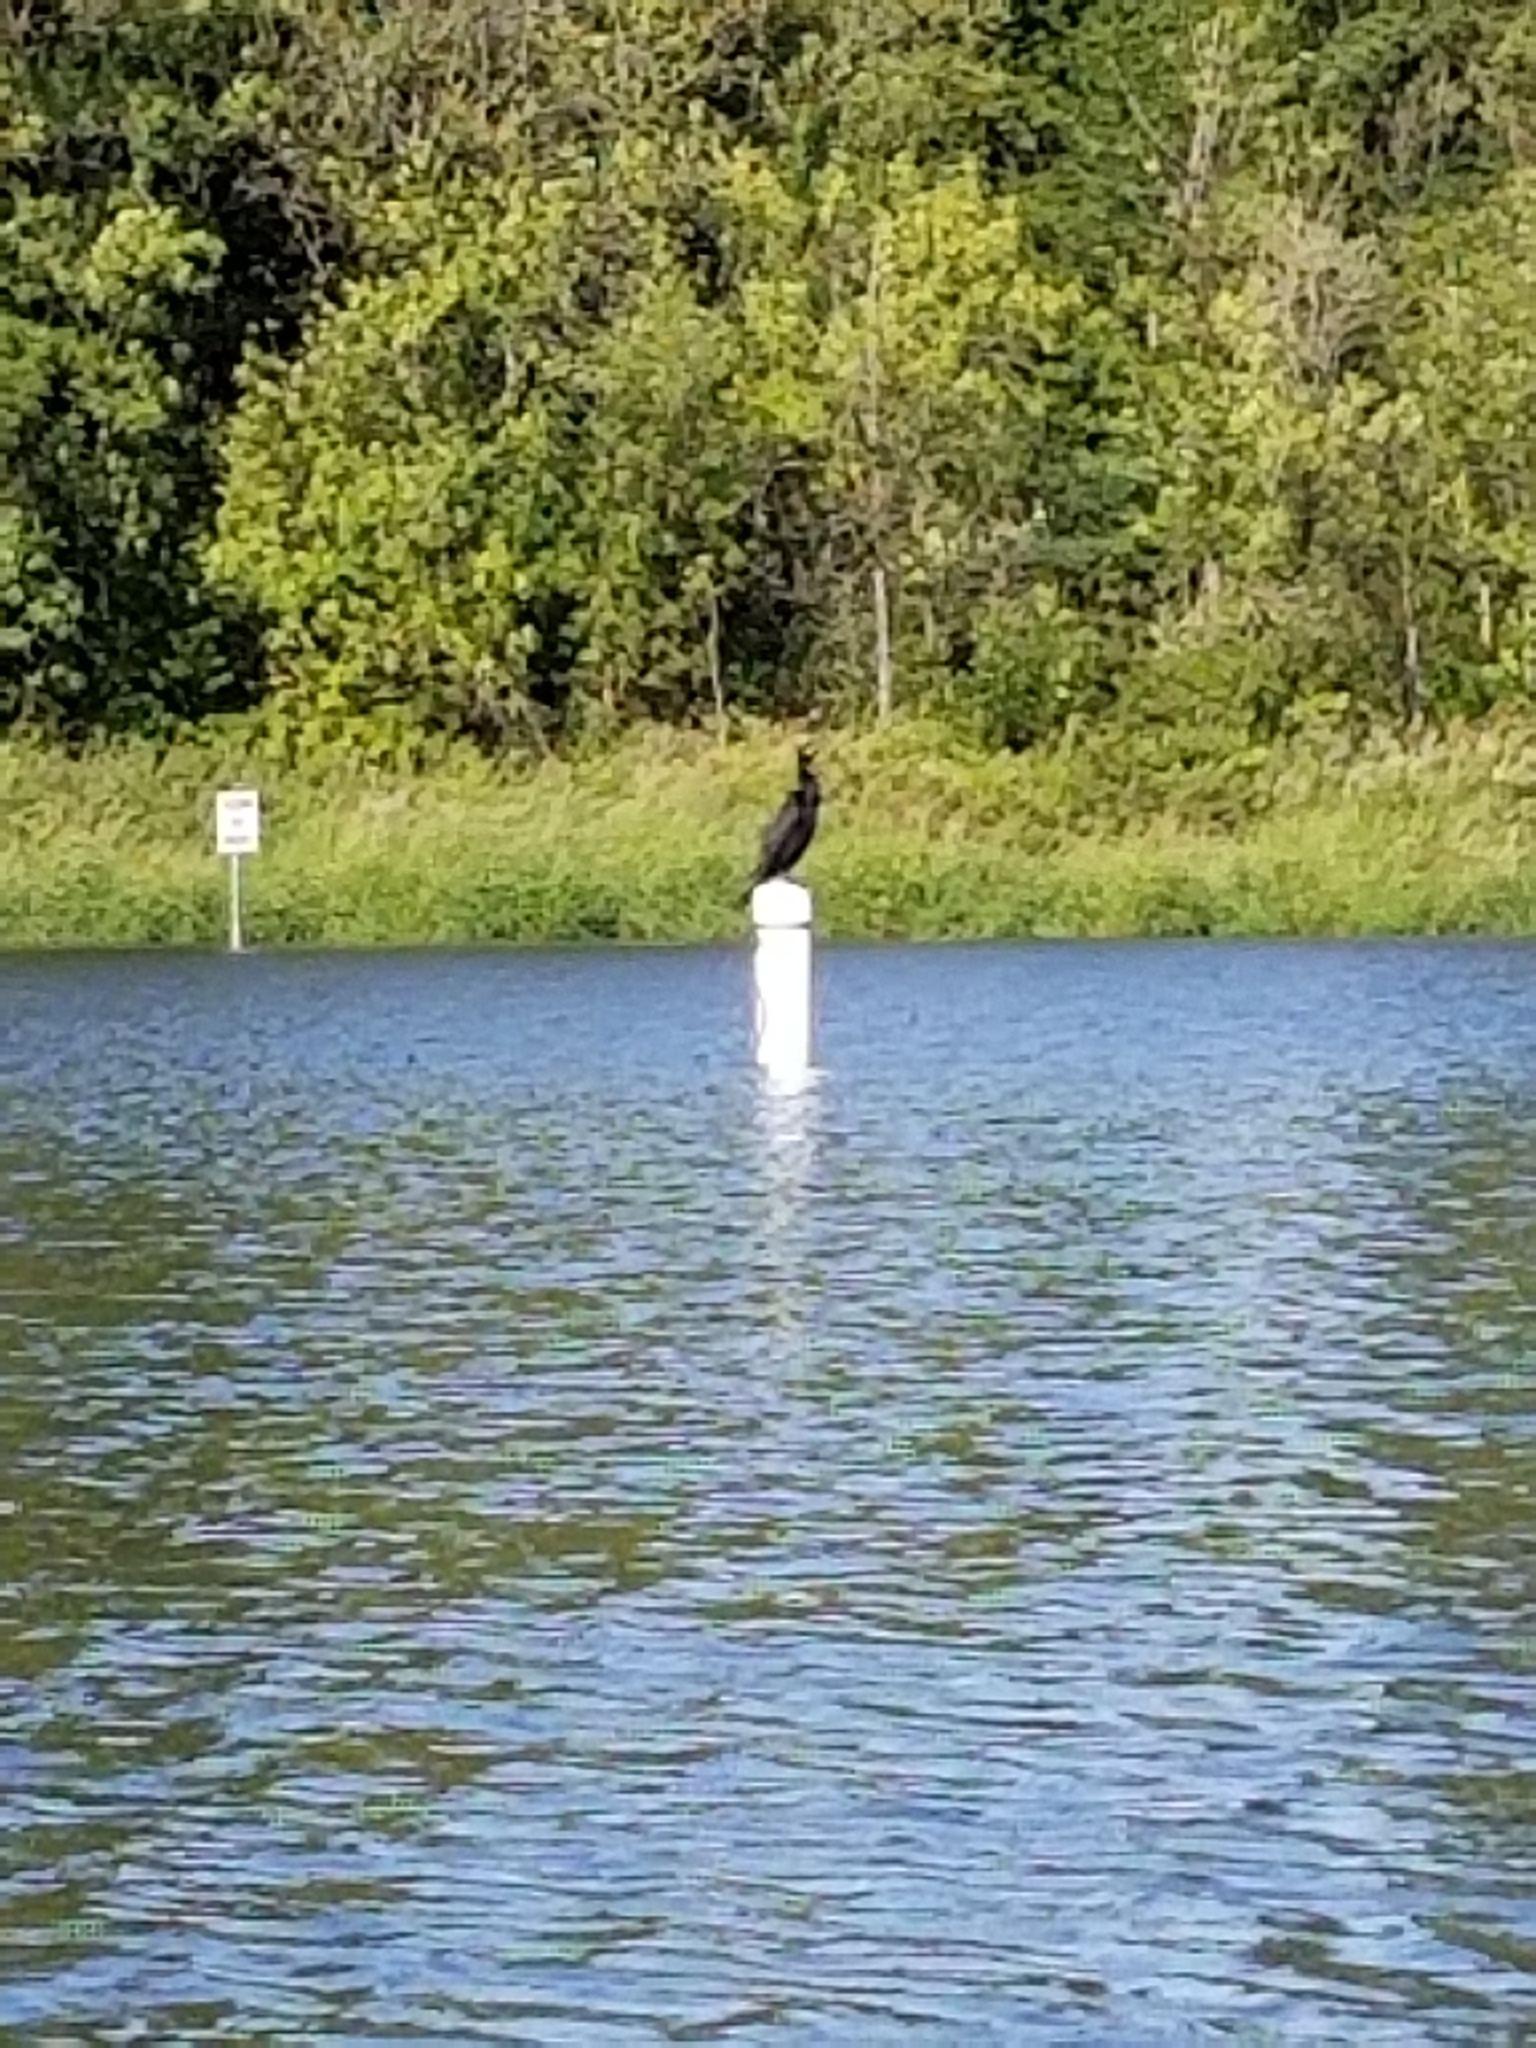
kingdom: Animalia
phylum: Chordata
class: Aves
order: Suliformes
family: Phalacrocoracidae
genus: Phalacrocorax
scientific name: Phalacrocorax auritus
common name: Double-crested cormorant
